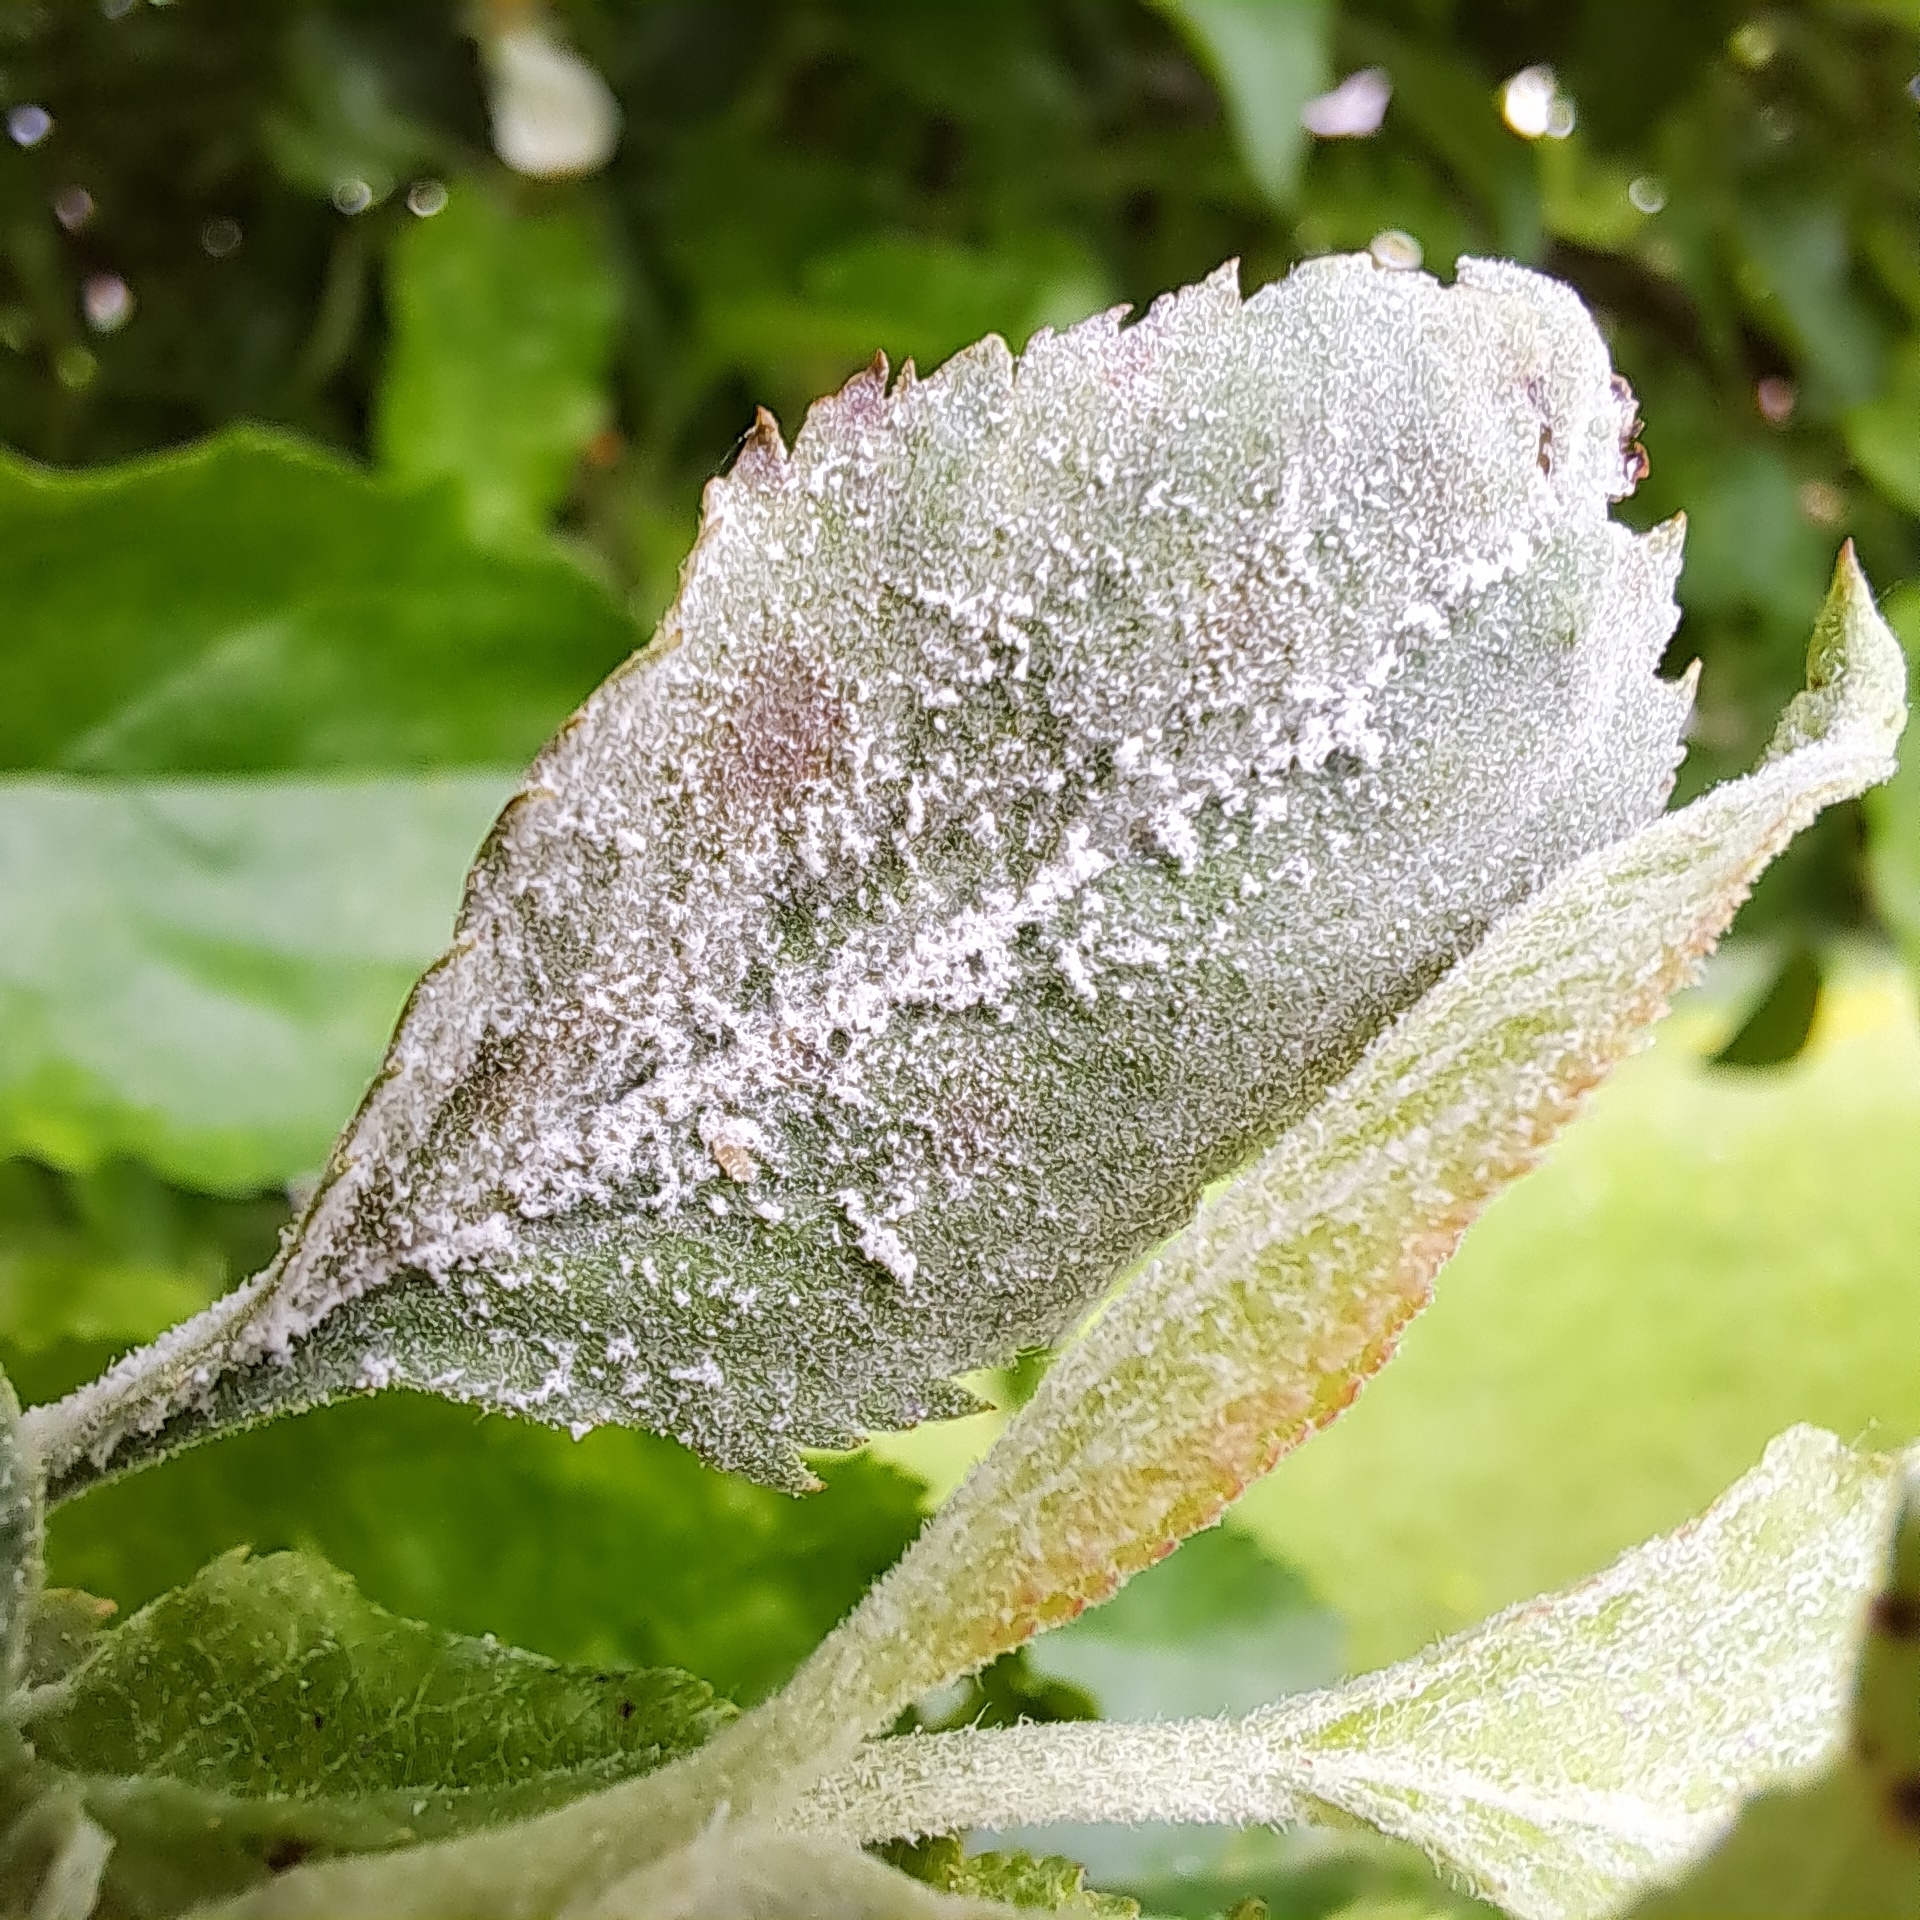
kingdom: Fungi
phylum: Ascomycota
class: Leotiomycetes
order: Helotiales
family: Erysiphaceae
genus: Podosphaera
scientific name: Podosphaera leucotricha
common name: Apple powdery mildew
